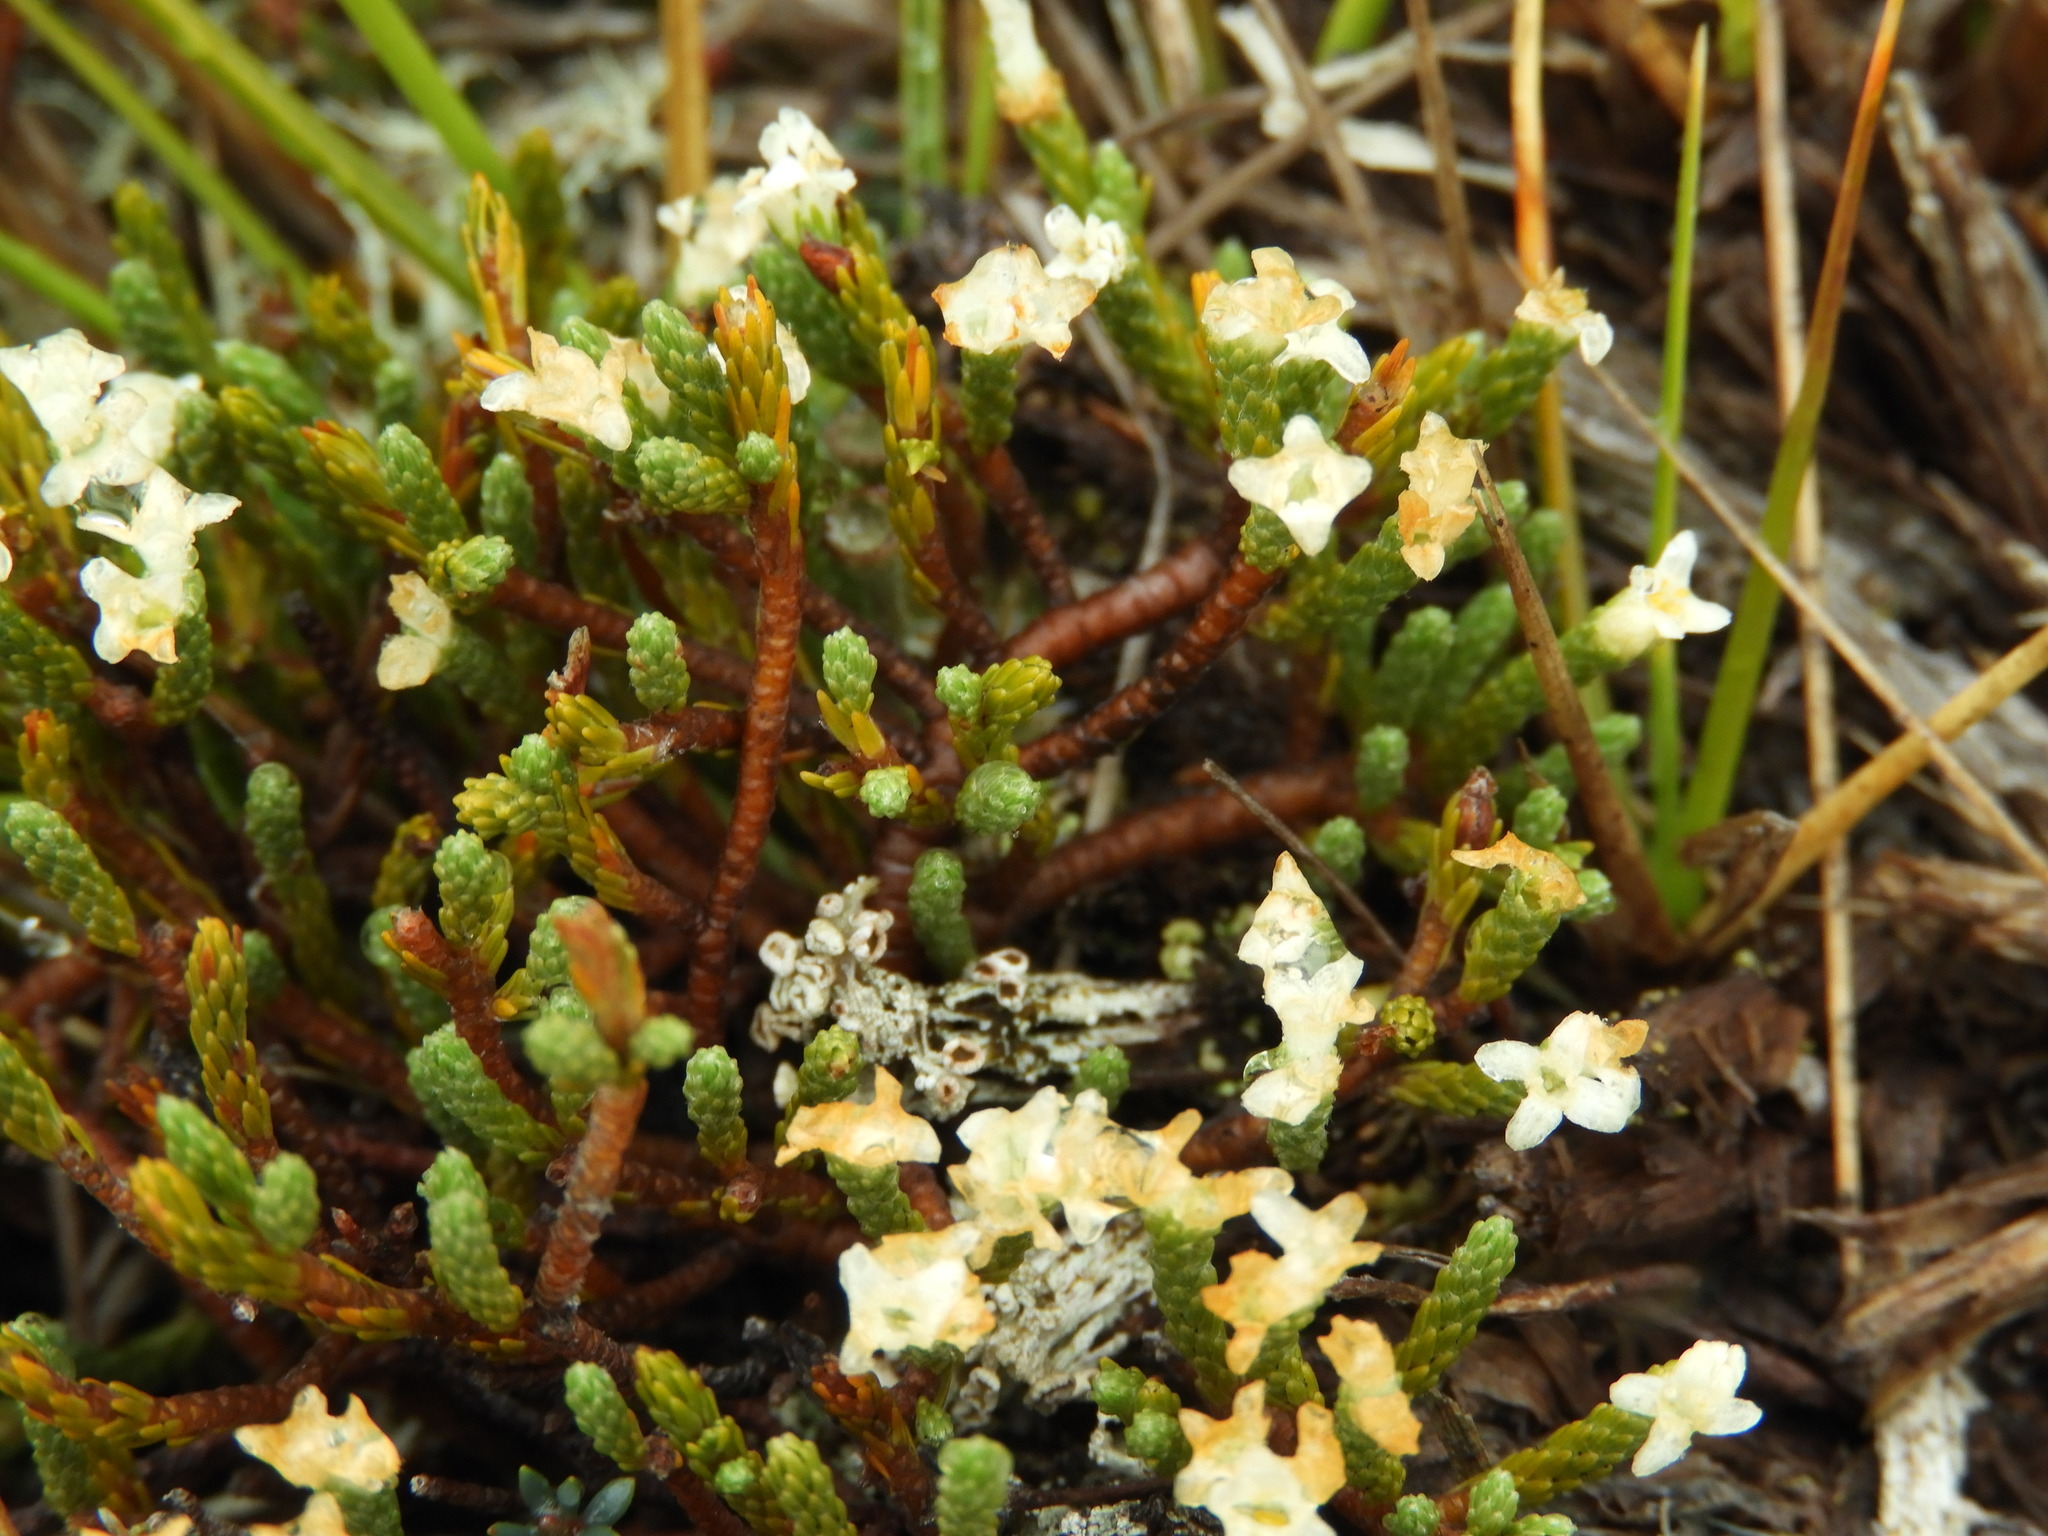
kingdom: Plantae
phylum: Tracheophyta
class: Magnoliopsida
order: Malvales
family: Thymelaeaceae
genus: Kelleria
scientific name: Kelleria dieffenbachii
